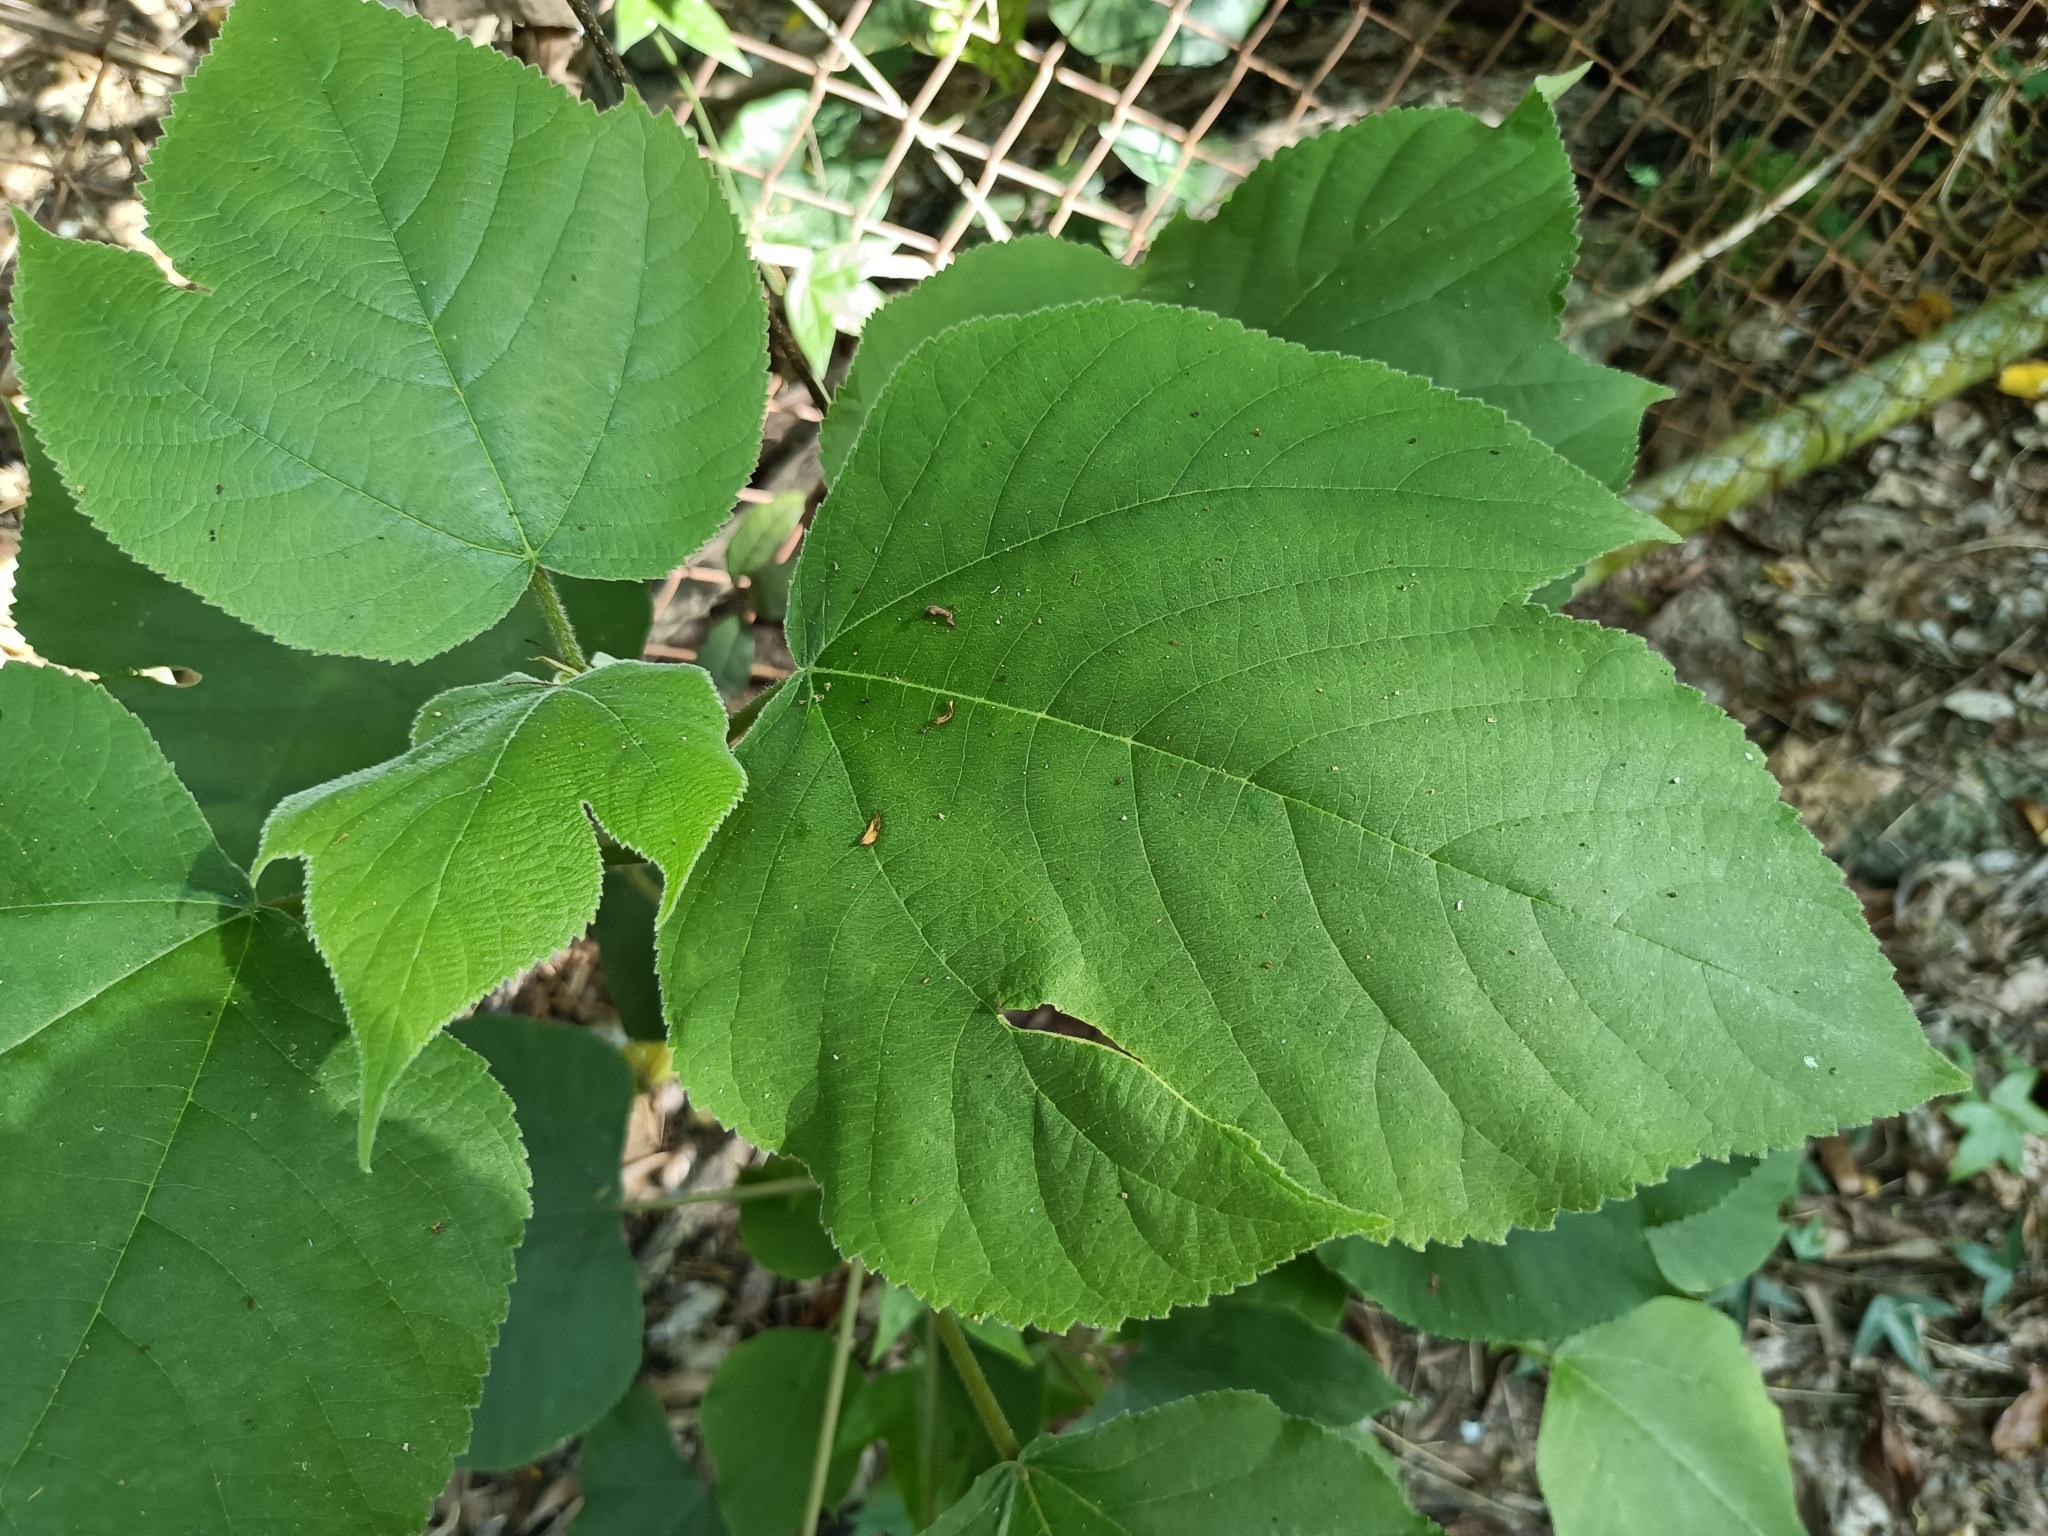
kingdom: Plantae
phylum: Tracheophyta
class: Magnoliopsida
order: Rosales
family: Moraceae
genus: Broussonetia
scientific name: Broussonetia papyrifera
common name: Paper mulberry
